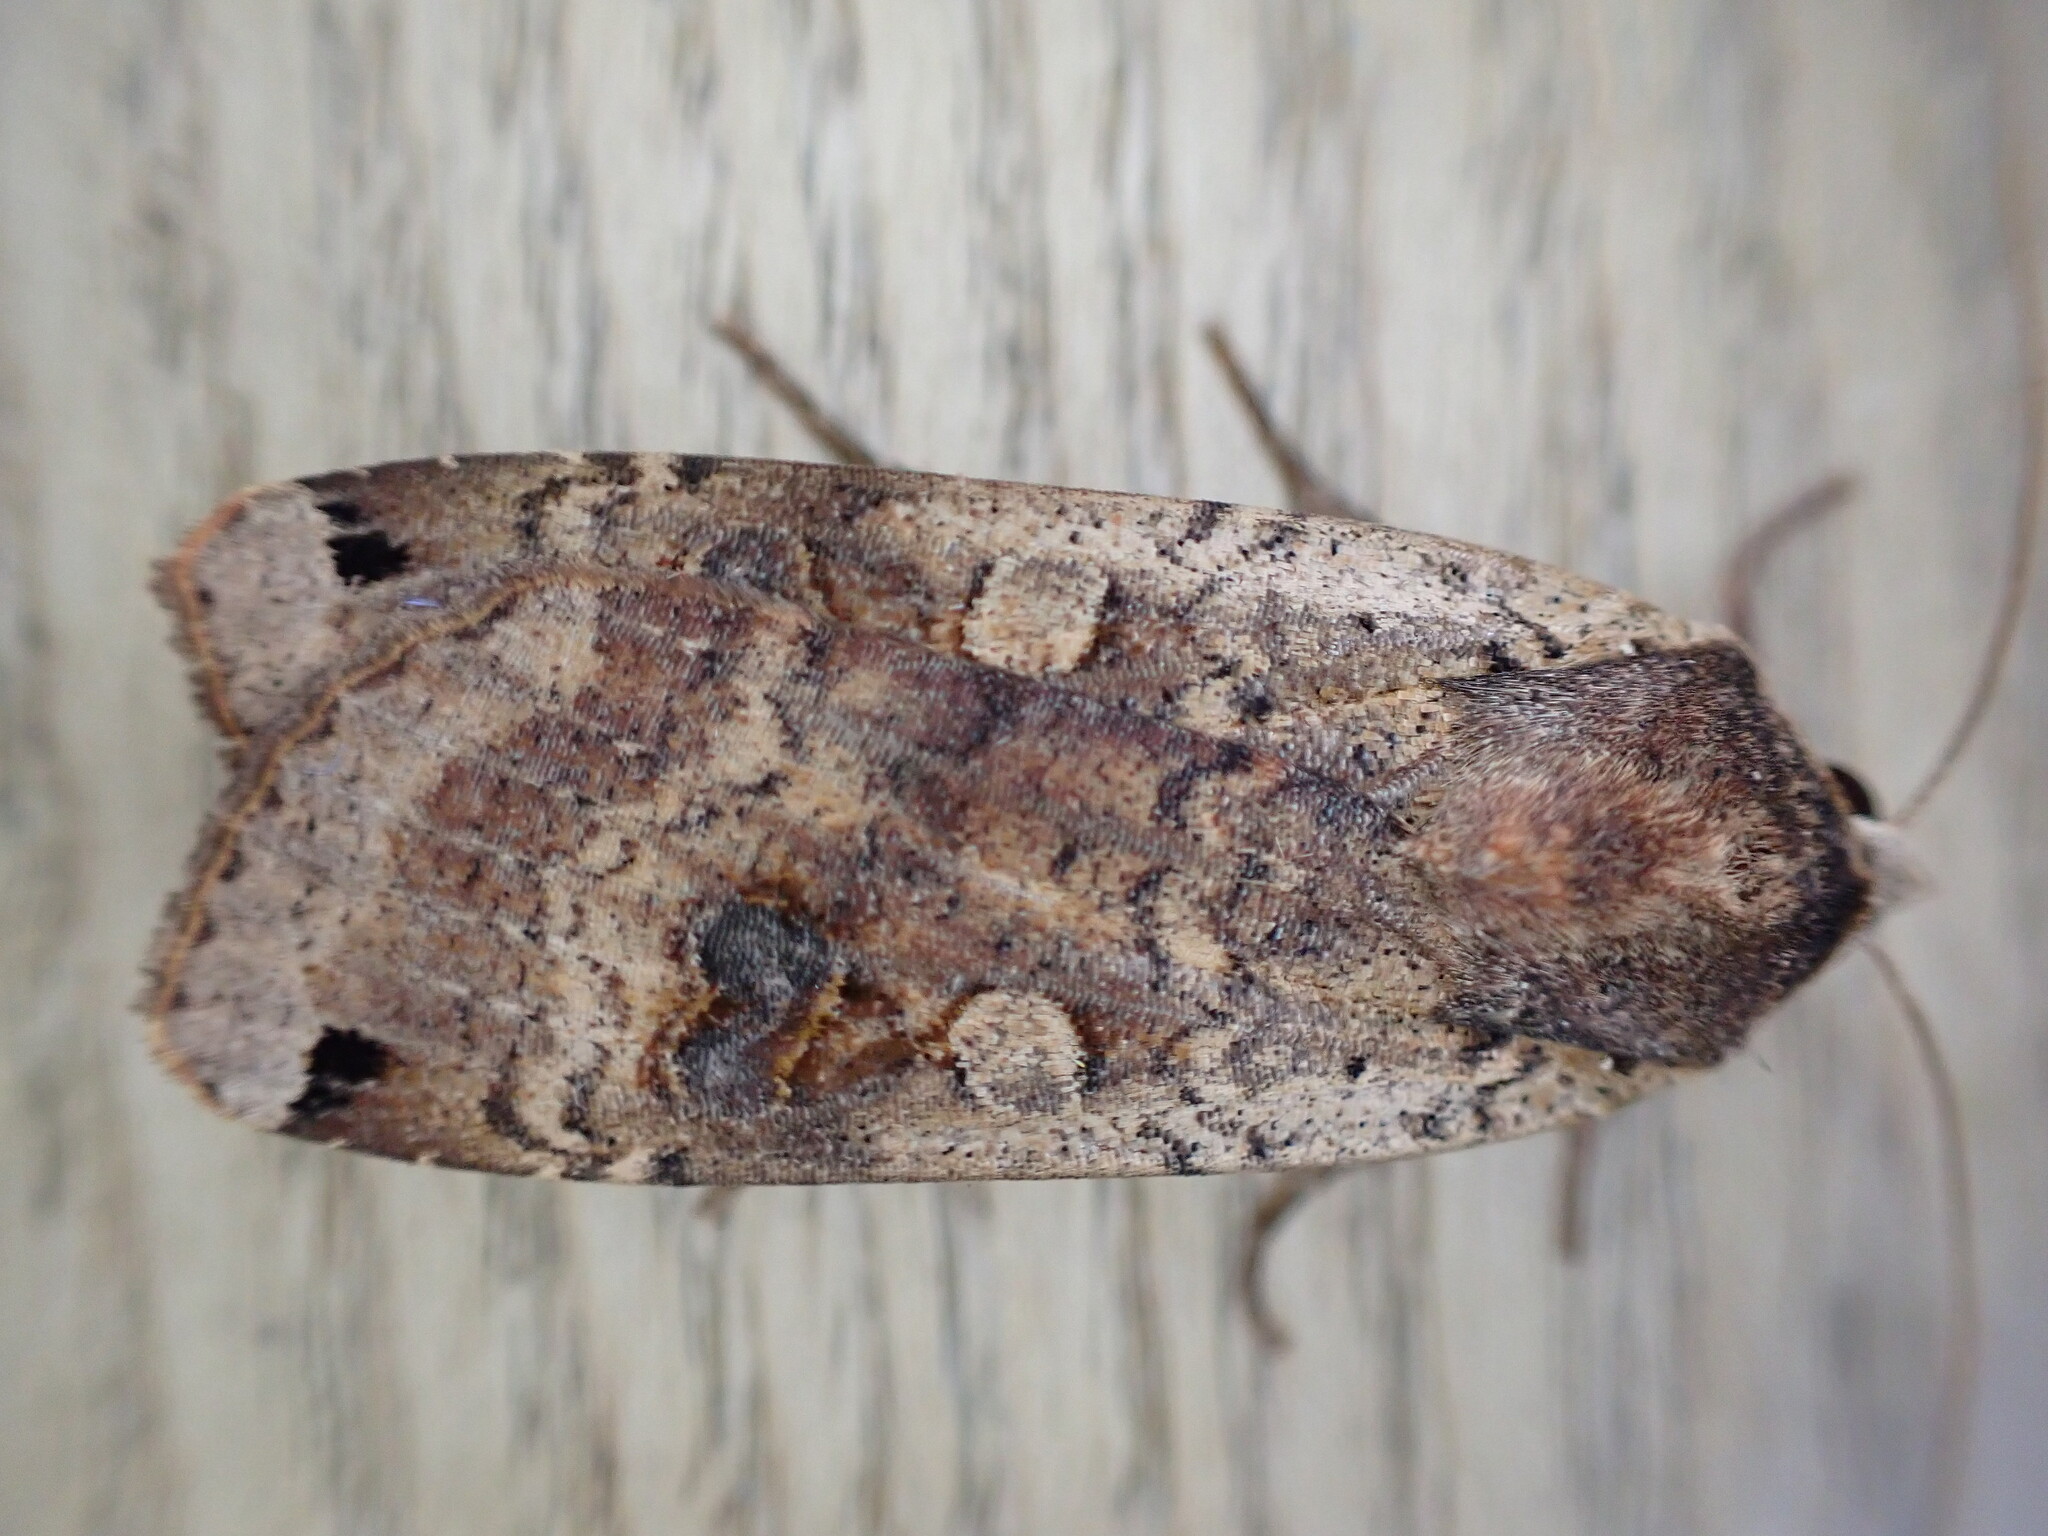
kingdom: Animalia
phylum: Arthropoda
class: Insecta
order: Lepidoptera
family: Noctuidae
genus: Noctua
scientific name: Noctua pronuba
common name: Large yellow underwing
